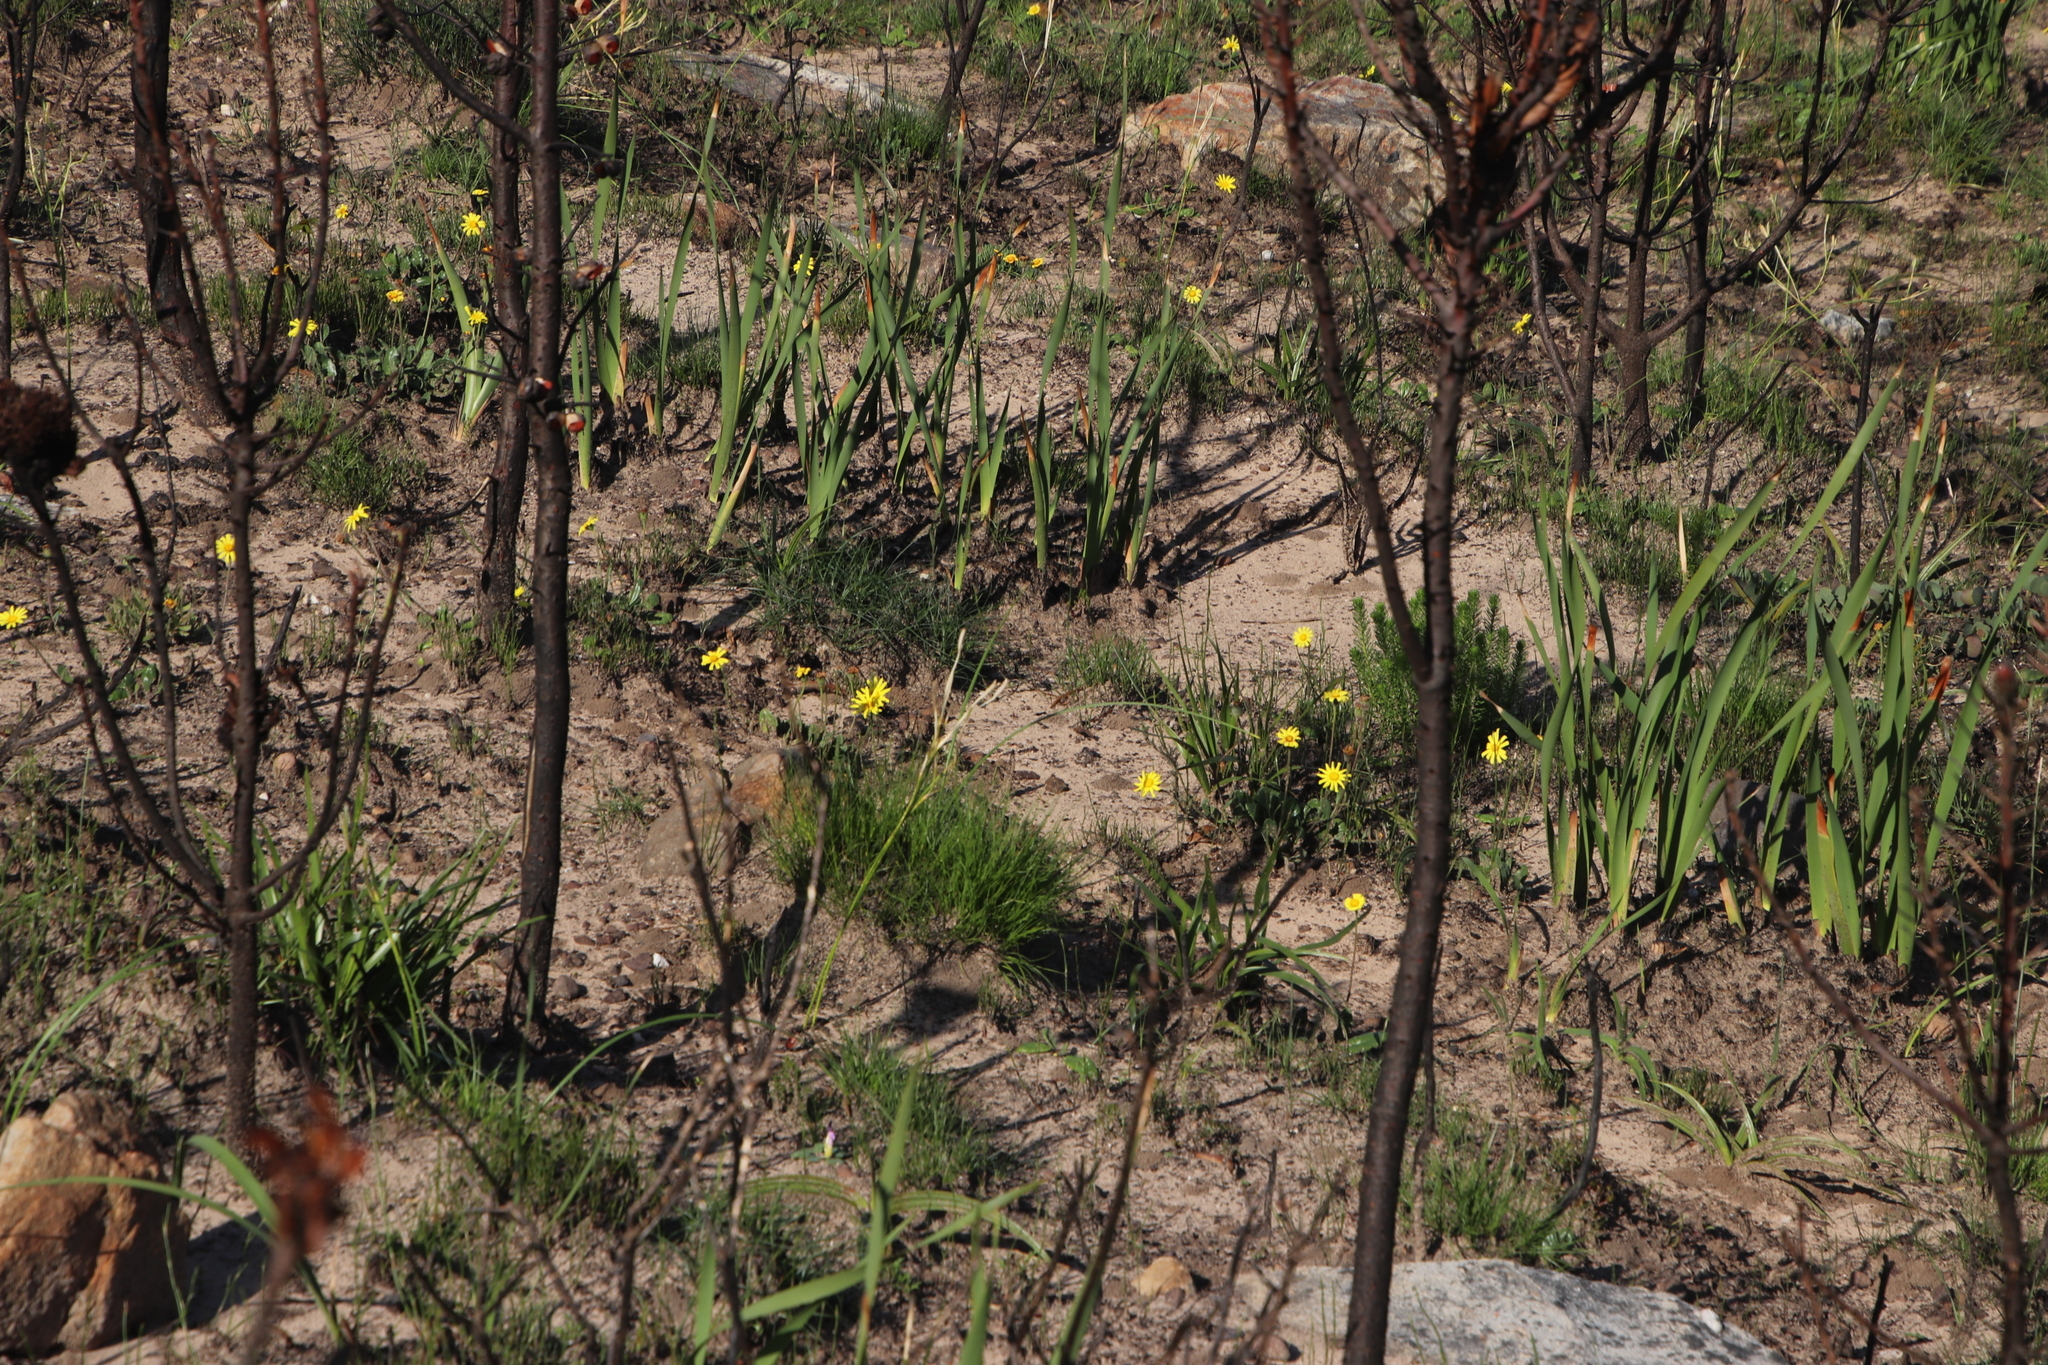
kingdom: Plantae
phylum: Tracheophyta
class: Magnoliopsida
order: Asterales
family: Asteraceae
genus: Dimorphotheca
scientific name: Dimorphotheca nudicaulis
